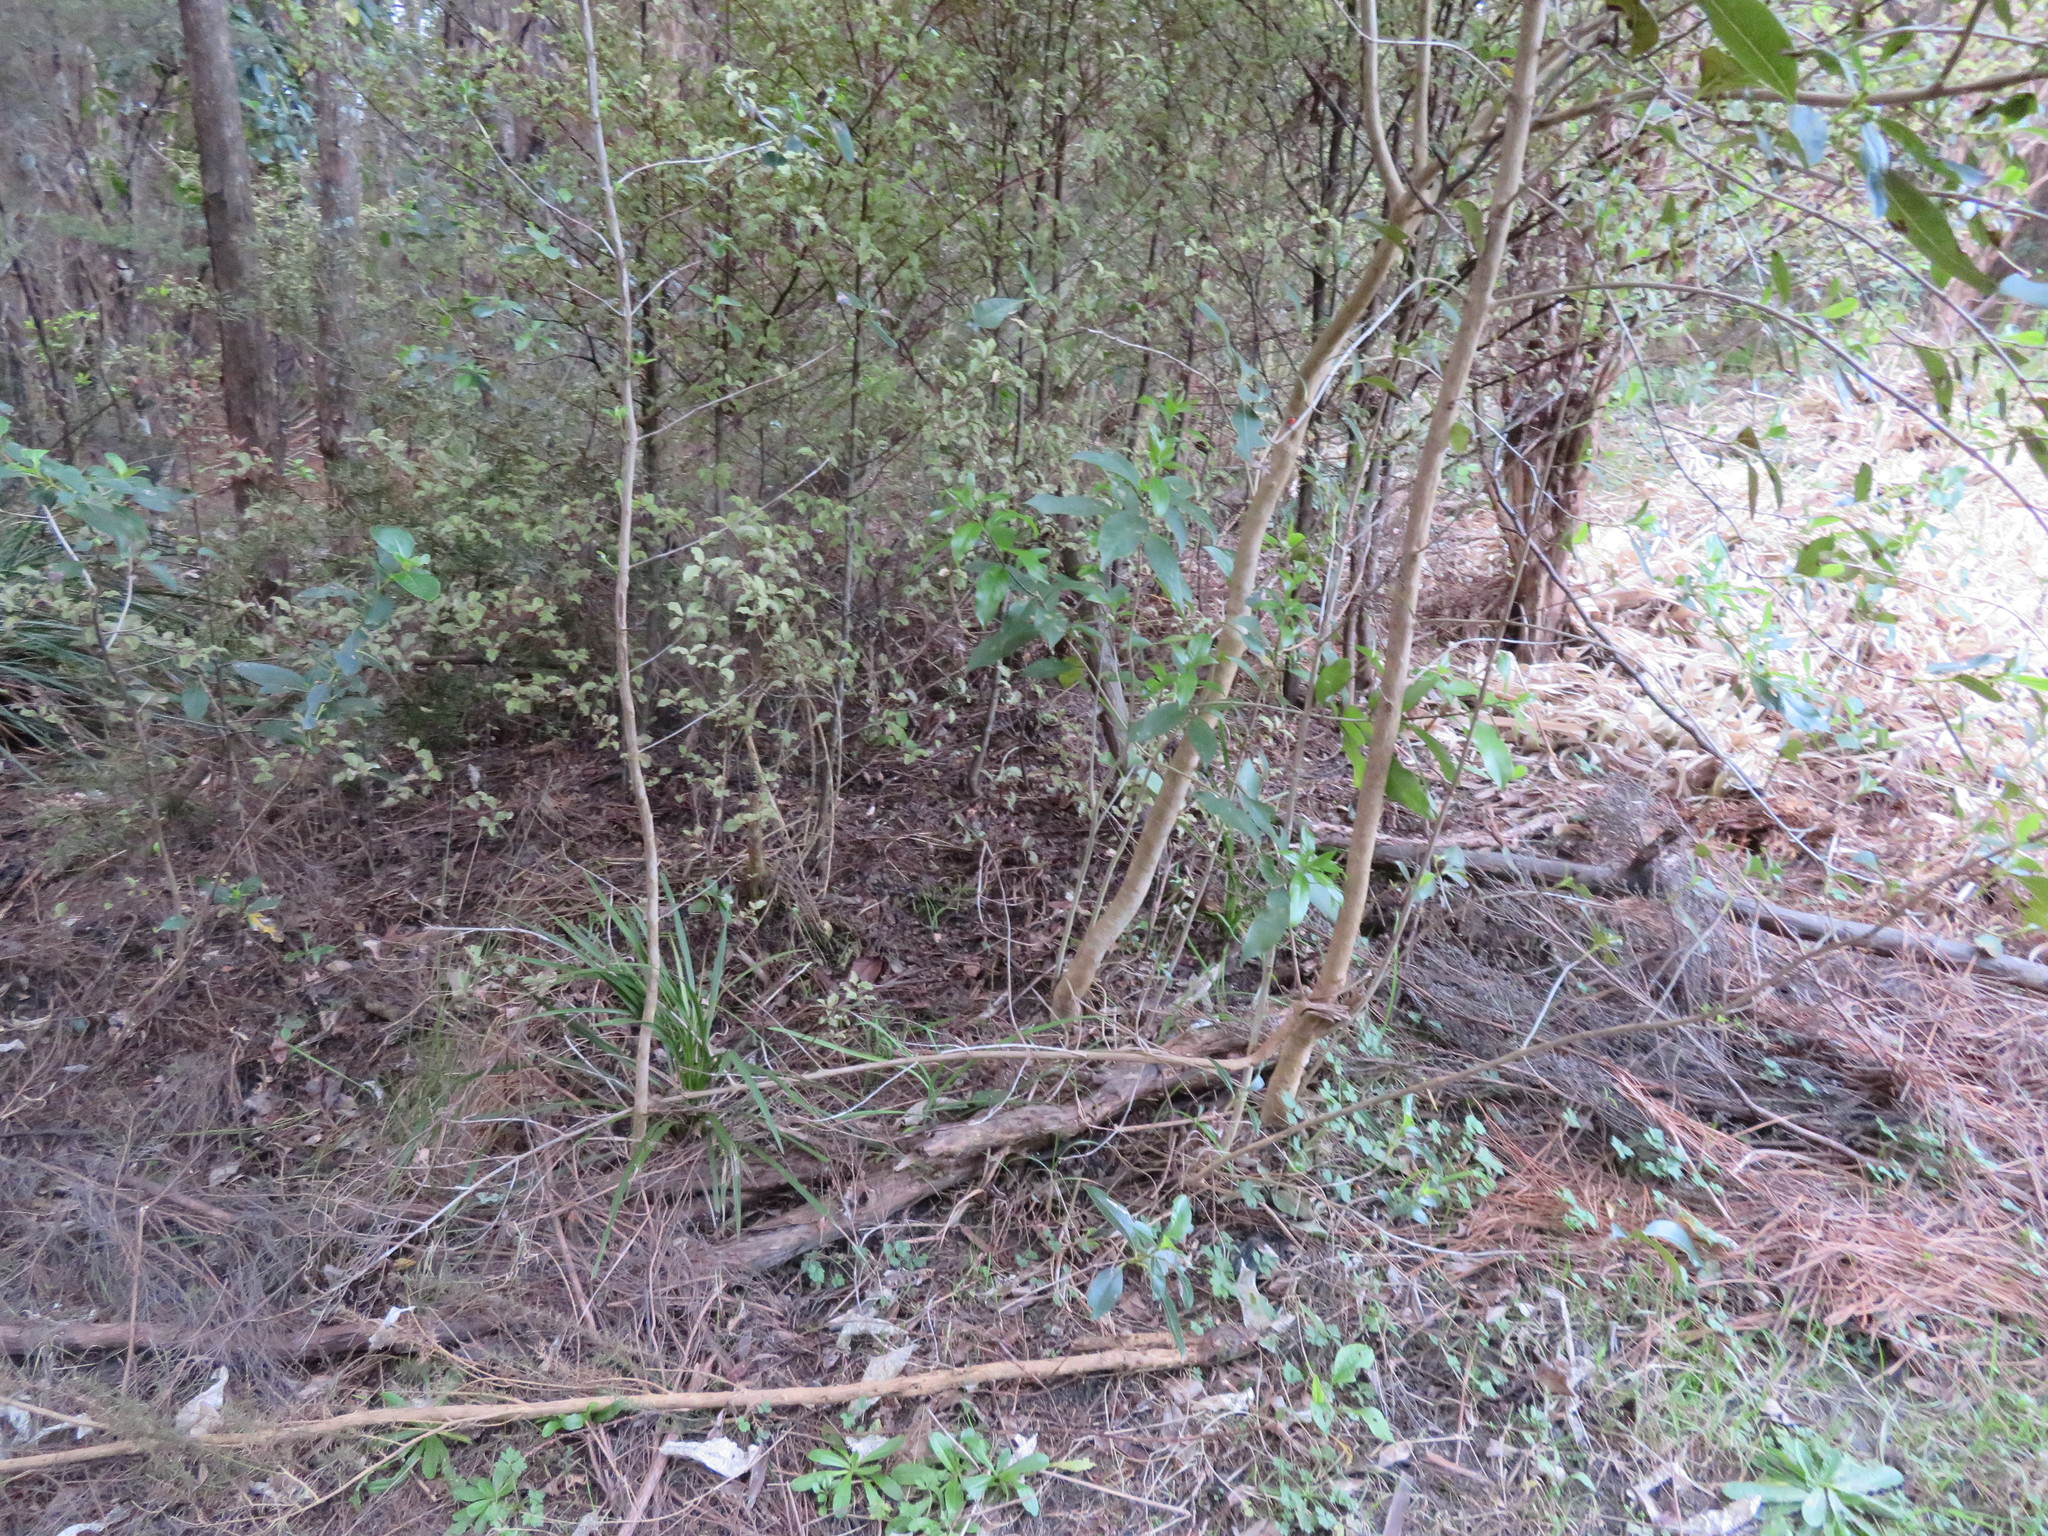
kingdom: Plantae
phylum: Tracheophyta
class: Magnoliopsida
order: Ericales
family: Primulaceae
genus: Myrsine
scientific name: Myrsine australis
